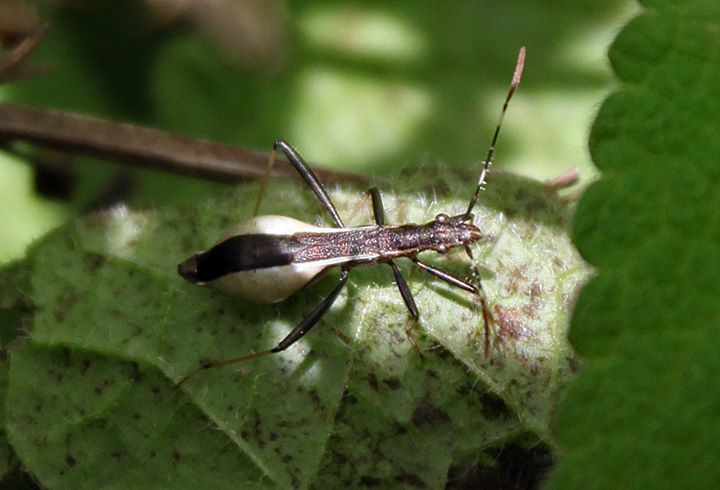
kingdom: Animalia
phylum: Arthropoda
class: Insecta
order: Hemiptera
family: Alydidae
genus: Micrelytra
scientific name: Micrelytra fossularum
